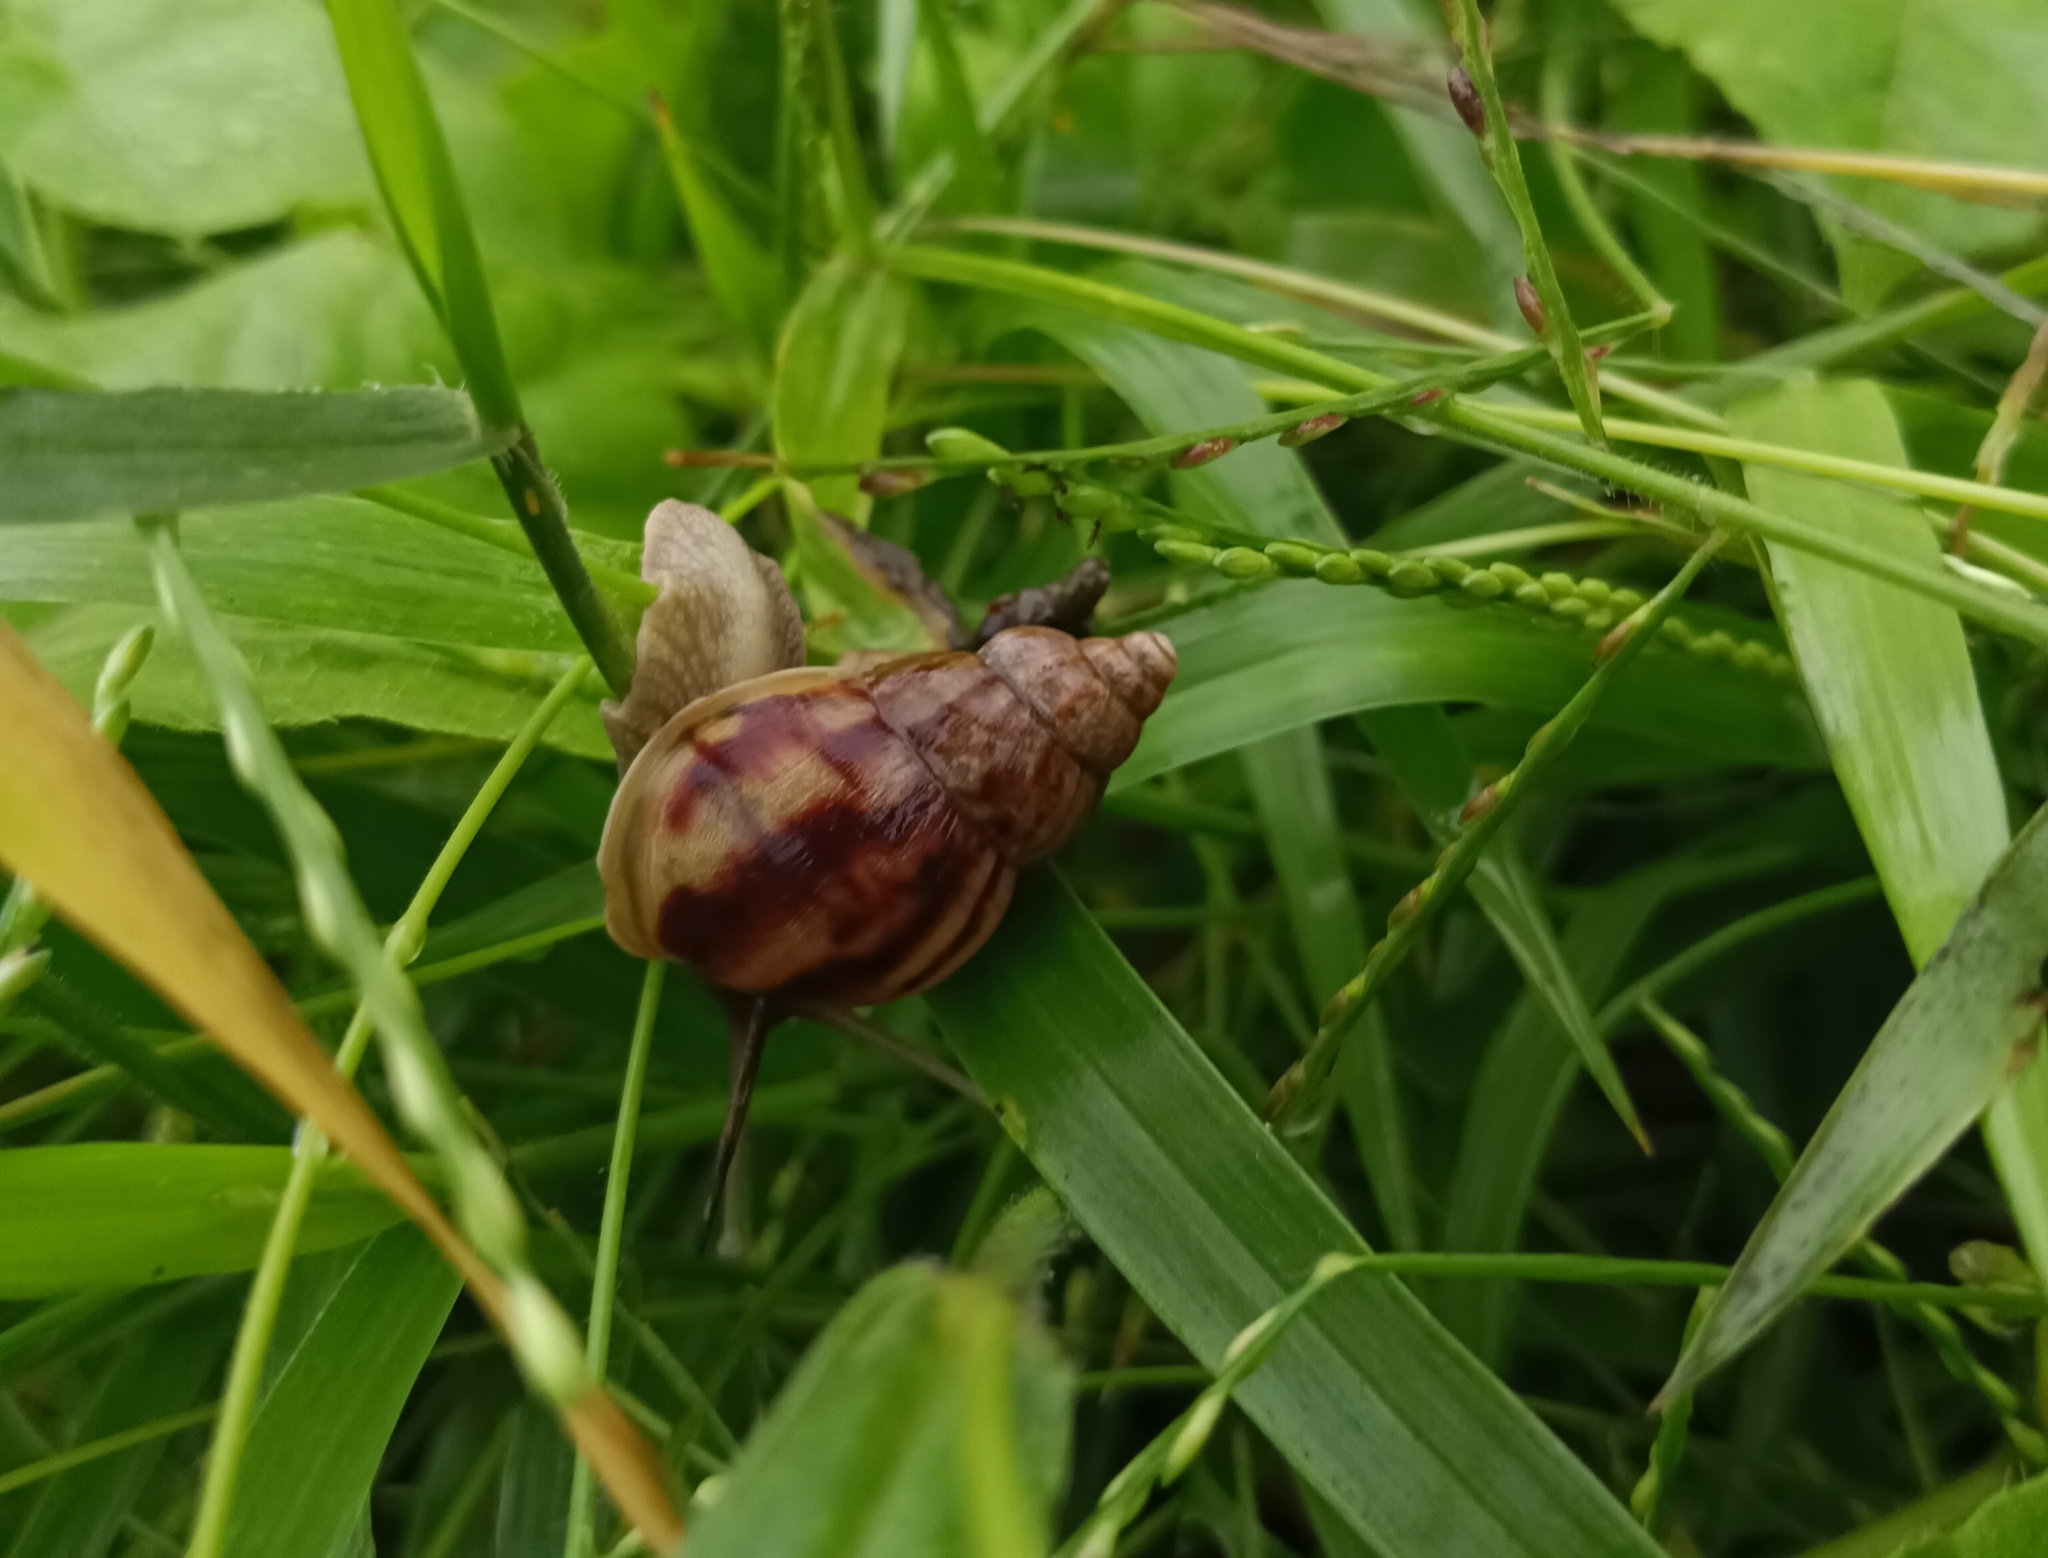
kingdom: Animalia
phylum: Mollusca
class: Gastropoda
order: Stylommatophora
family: Achatinidae
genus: Lissachatina
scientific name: Lissachatina fulica
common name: Giant african snail
